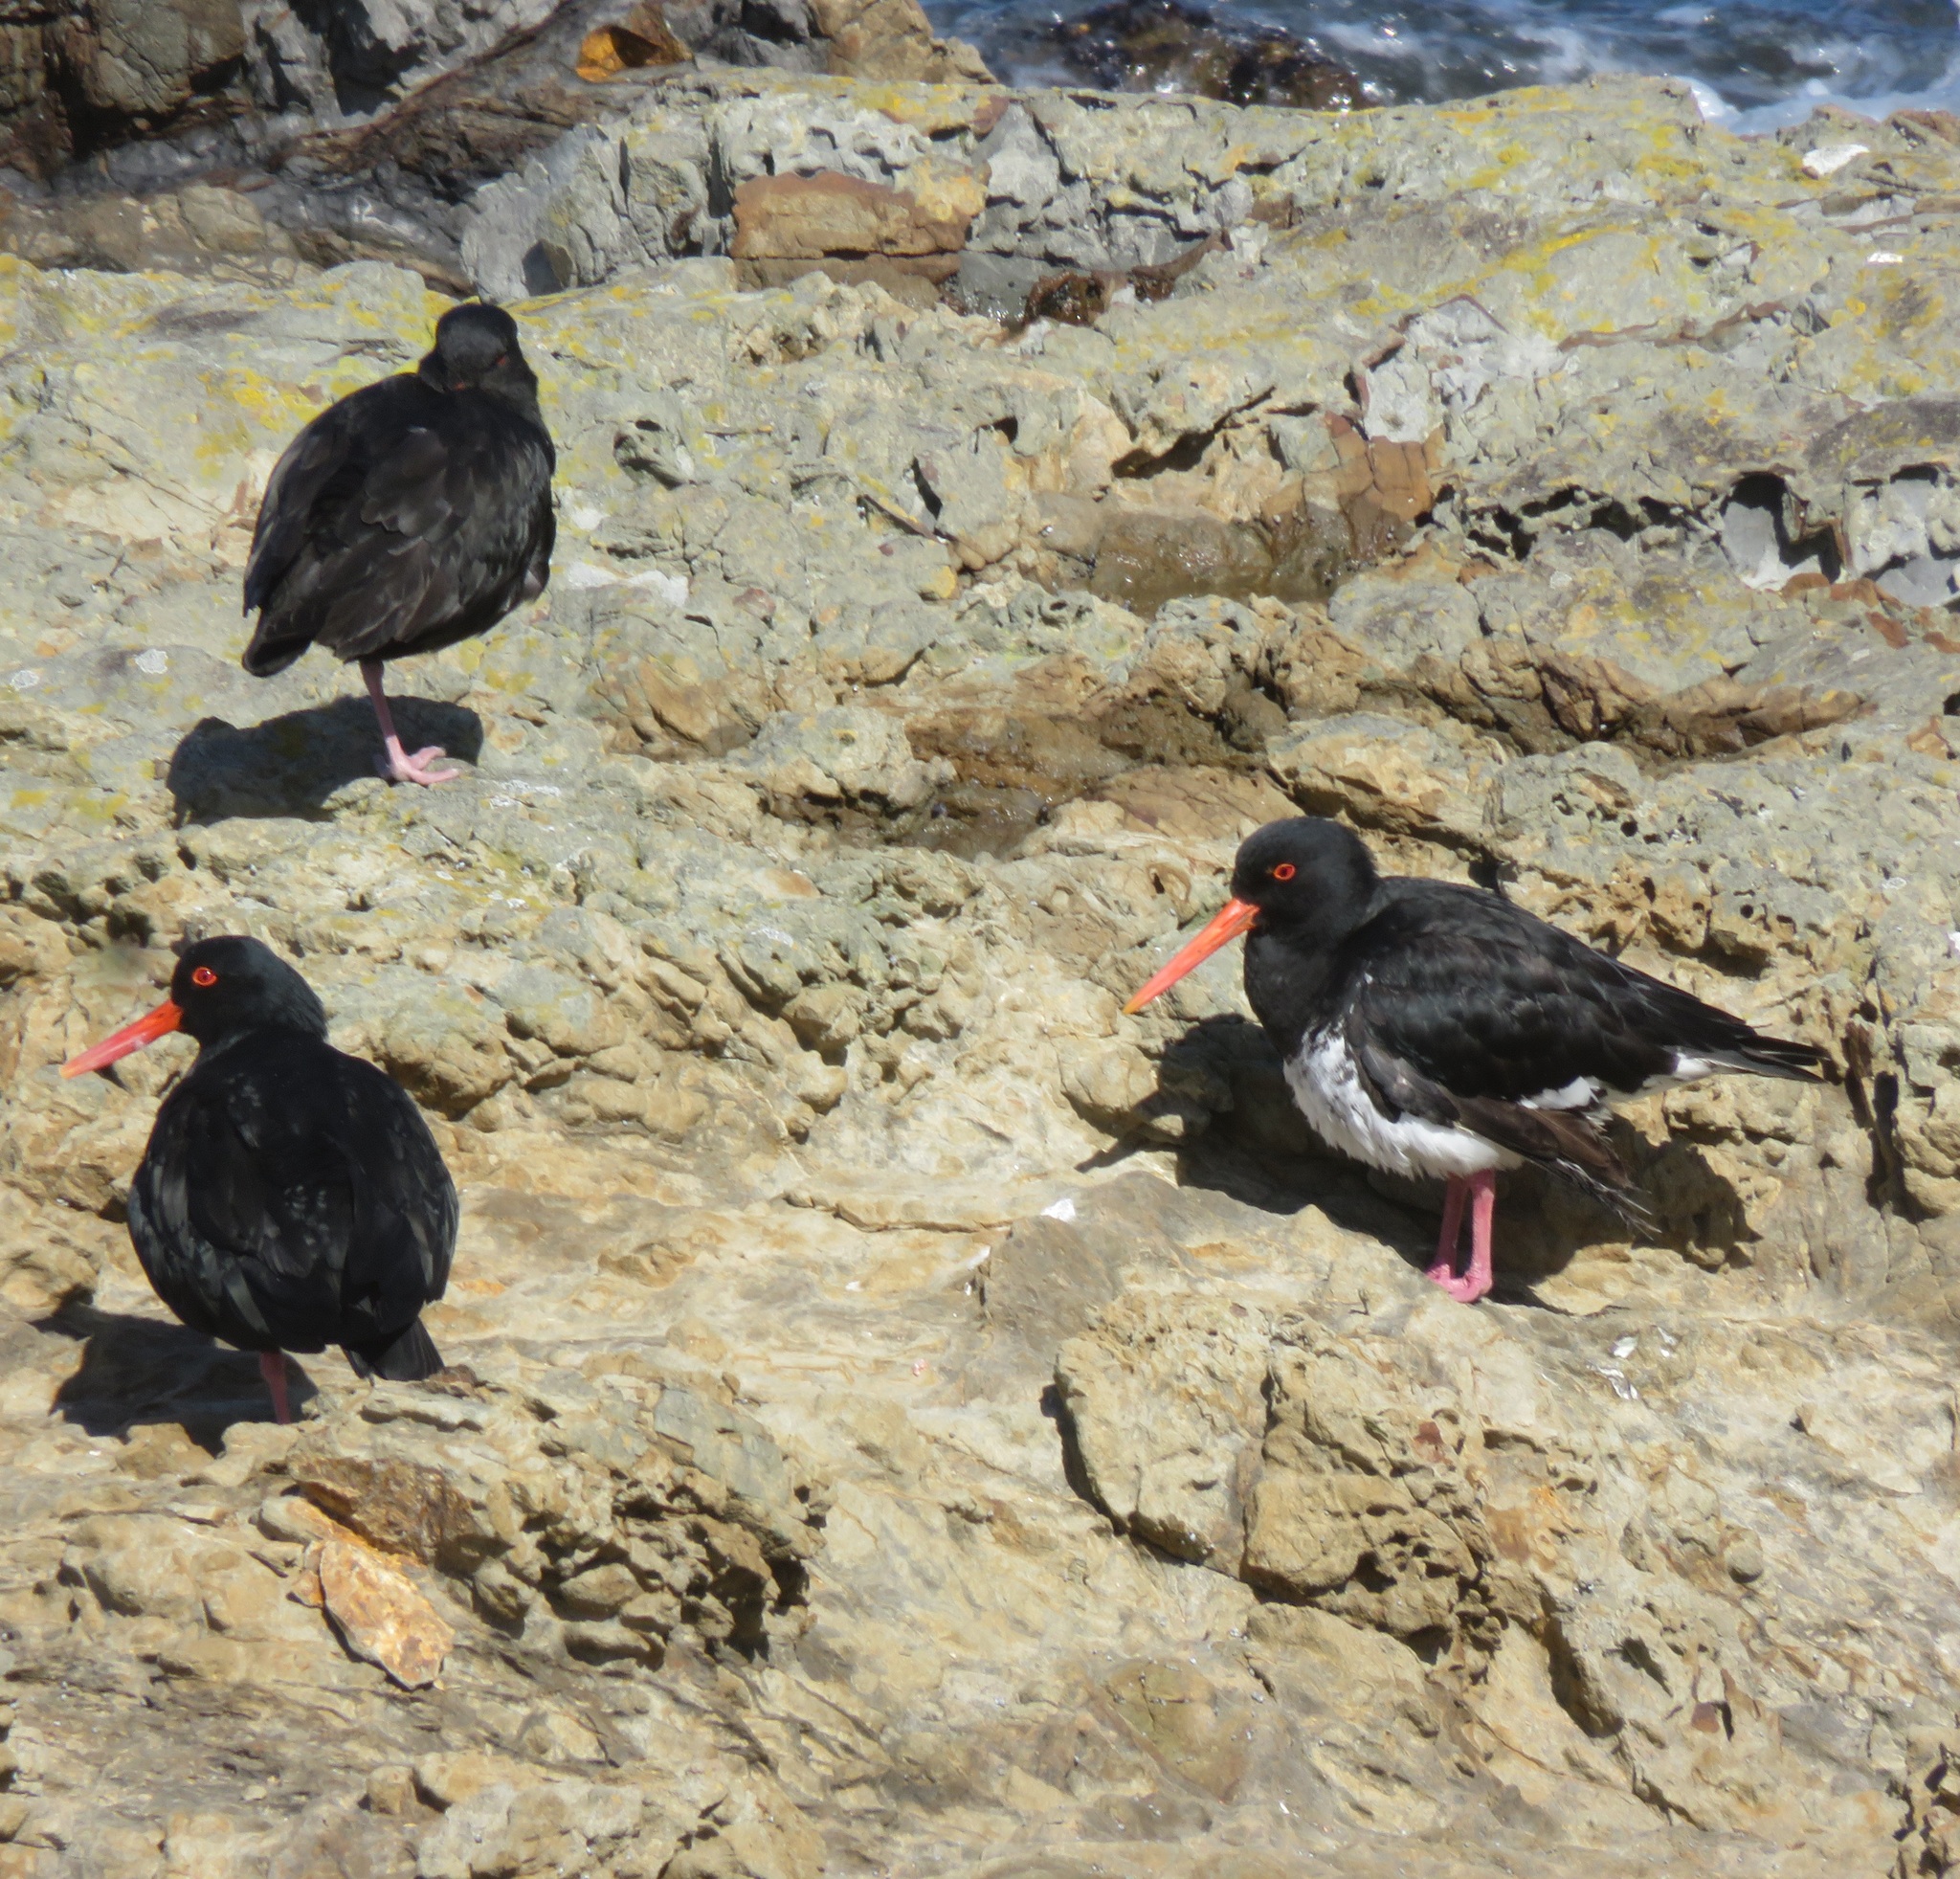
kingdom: Animalia
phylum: Chordata
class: Aves
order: Charadriiformes
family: Haematopodidae
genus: Haematopus
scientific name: Haematopus unicolor
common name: Variable oystercatcher
